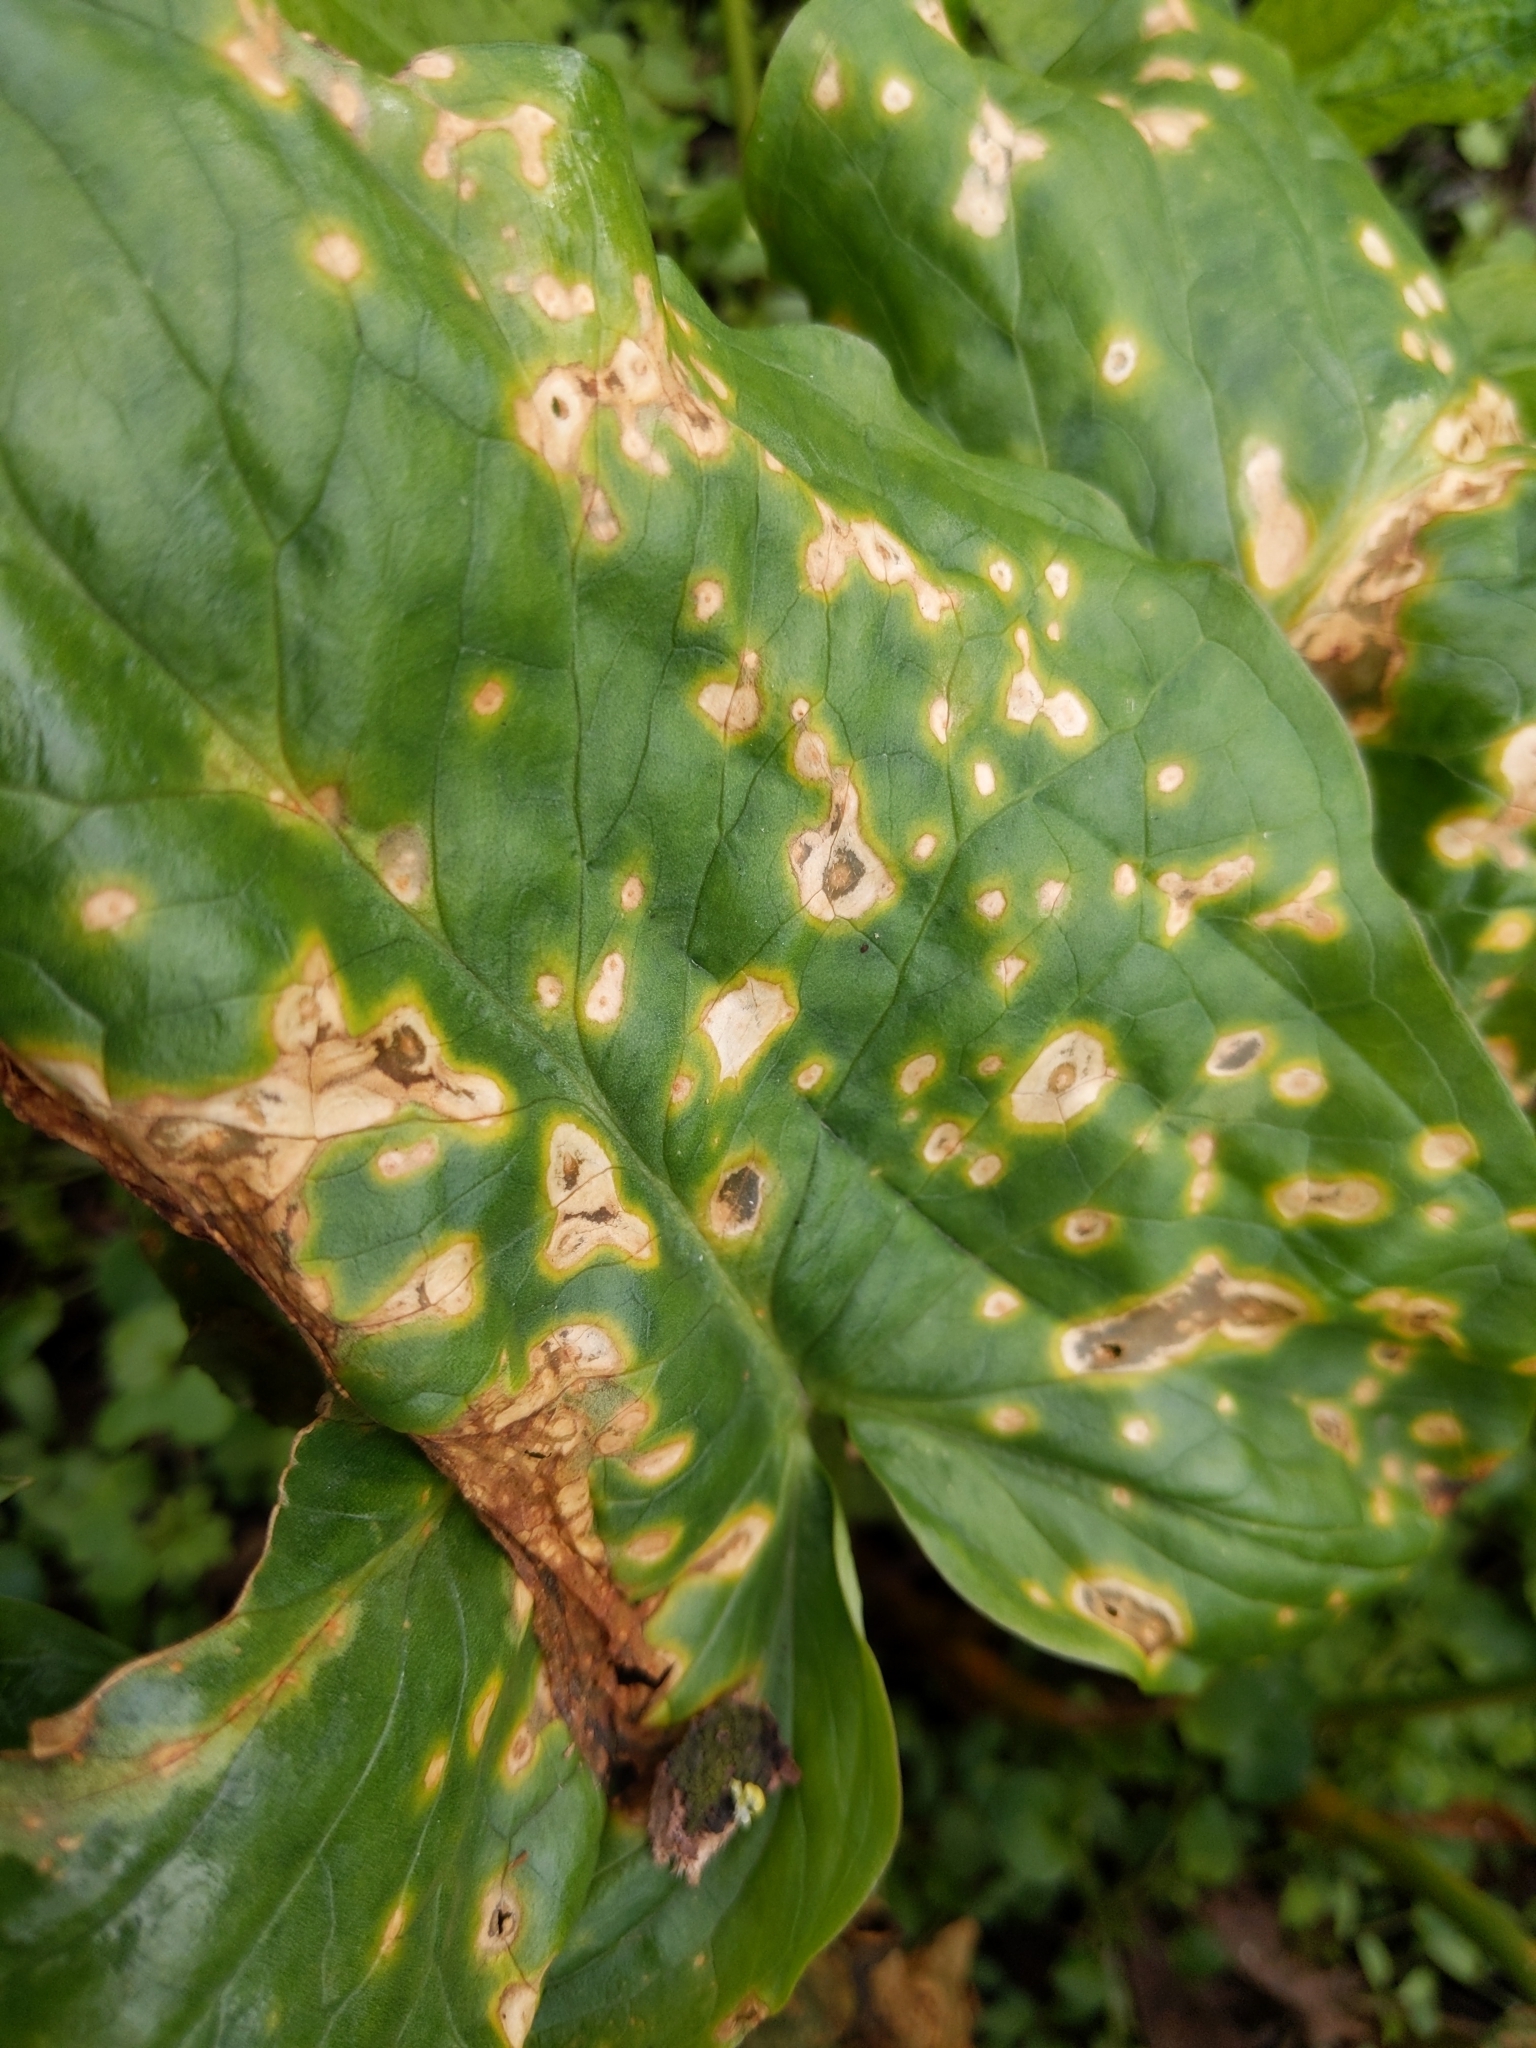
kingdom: Fungi
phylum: Ascomycota
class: Sordariomycetes
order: Glomerellales
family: Plectosphaerellaceae
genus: Spermosporina
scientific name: Spermosporina aricola
